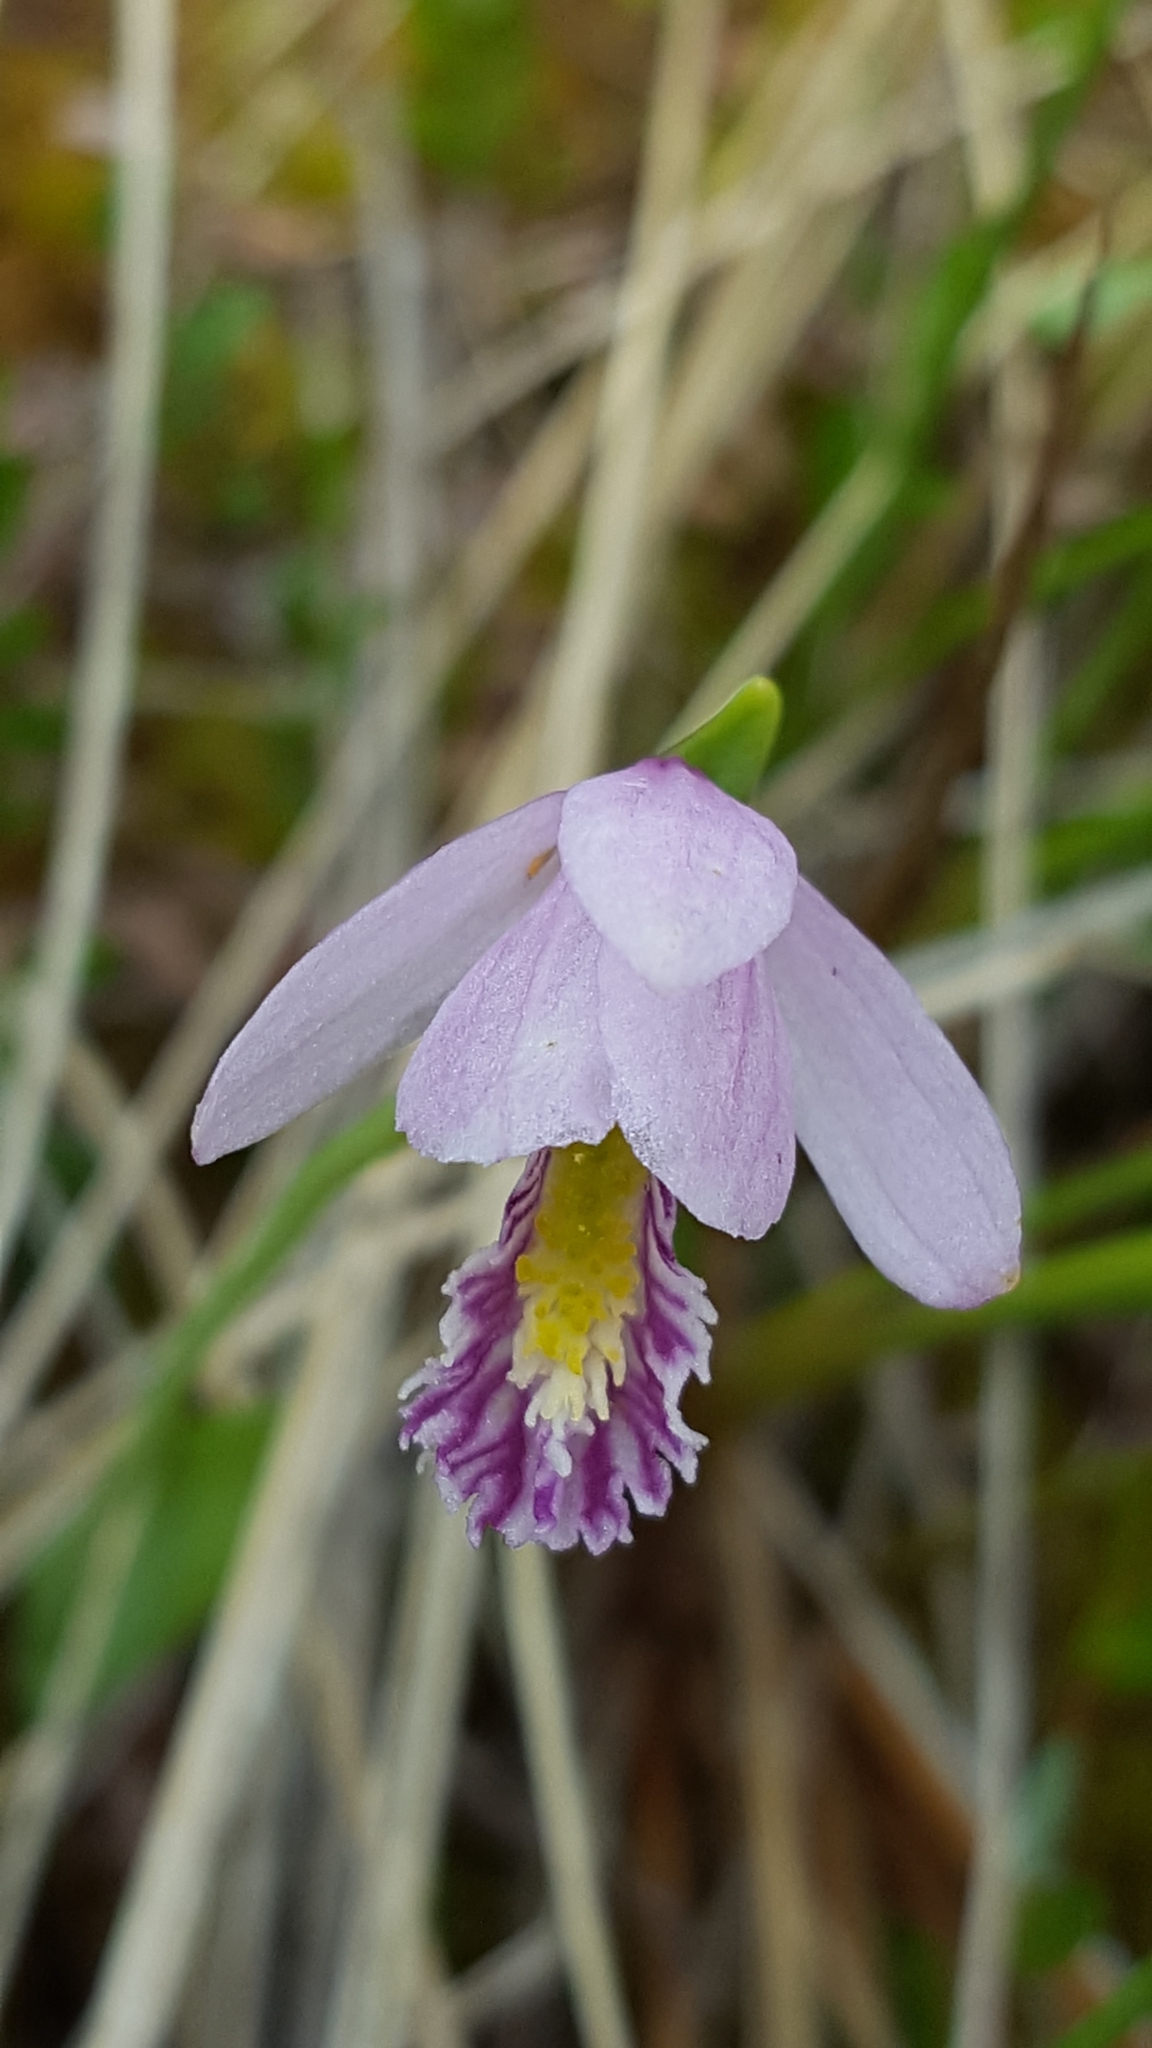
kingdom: Plantae
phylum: Tracheophyta
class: Liliopsida
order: Asparagales
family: Orchidaceae
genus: Pogonia
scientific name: Pogonia ophioglossoides
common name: Rose pogonia
